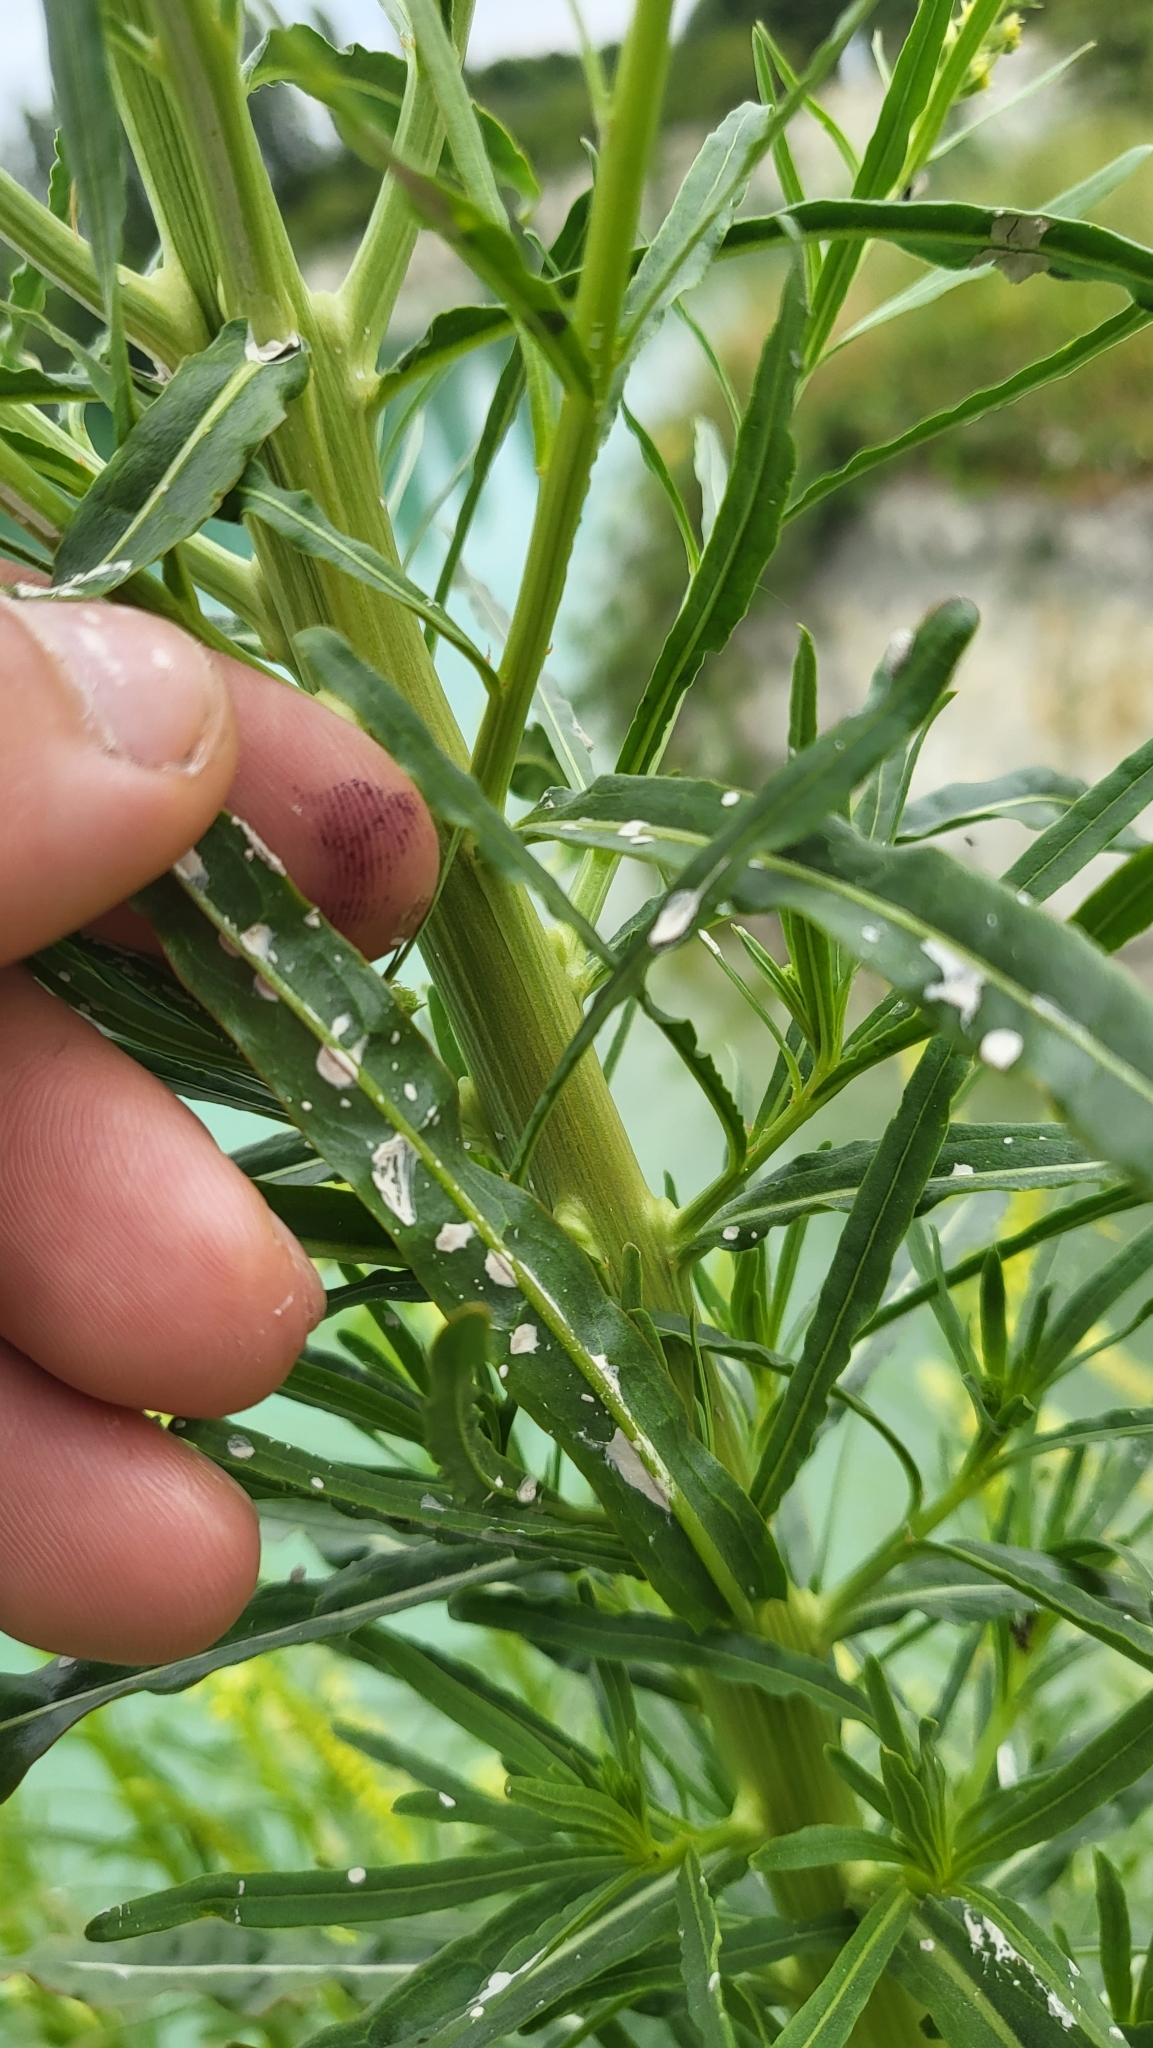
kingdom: Plantae
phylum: Tracheophyta
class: Magnoliopsida
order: Brassicales
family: Resedaceae
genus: Reseda
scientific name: Reseda luteola
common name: Weld
